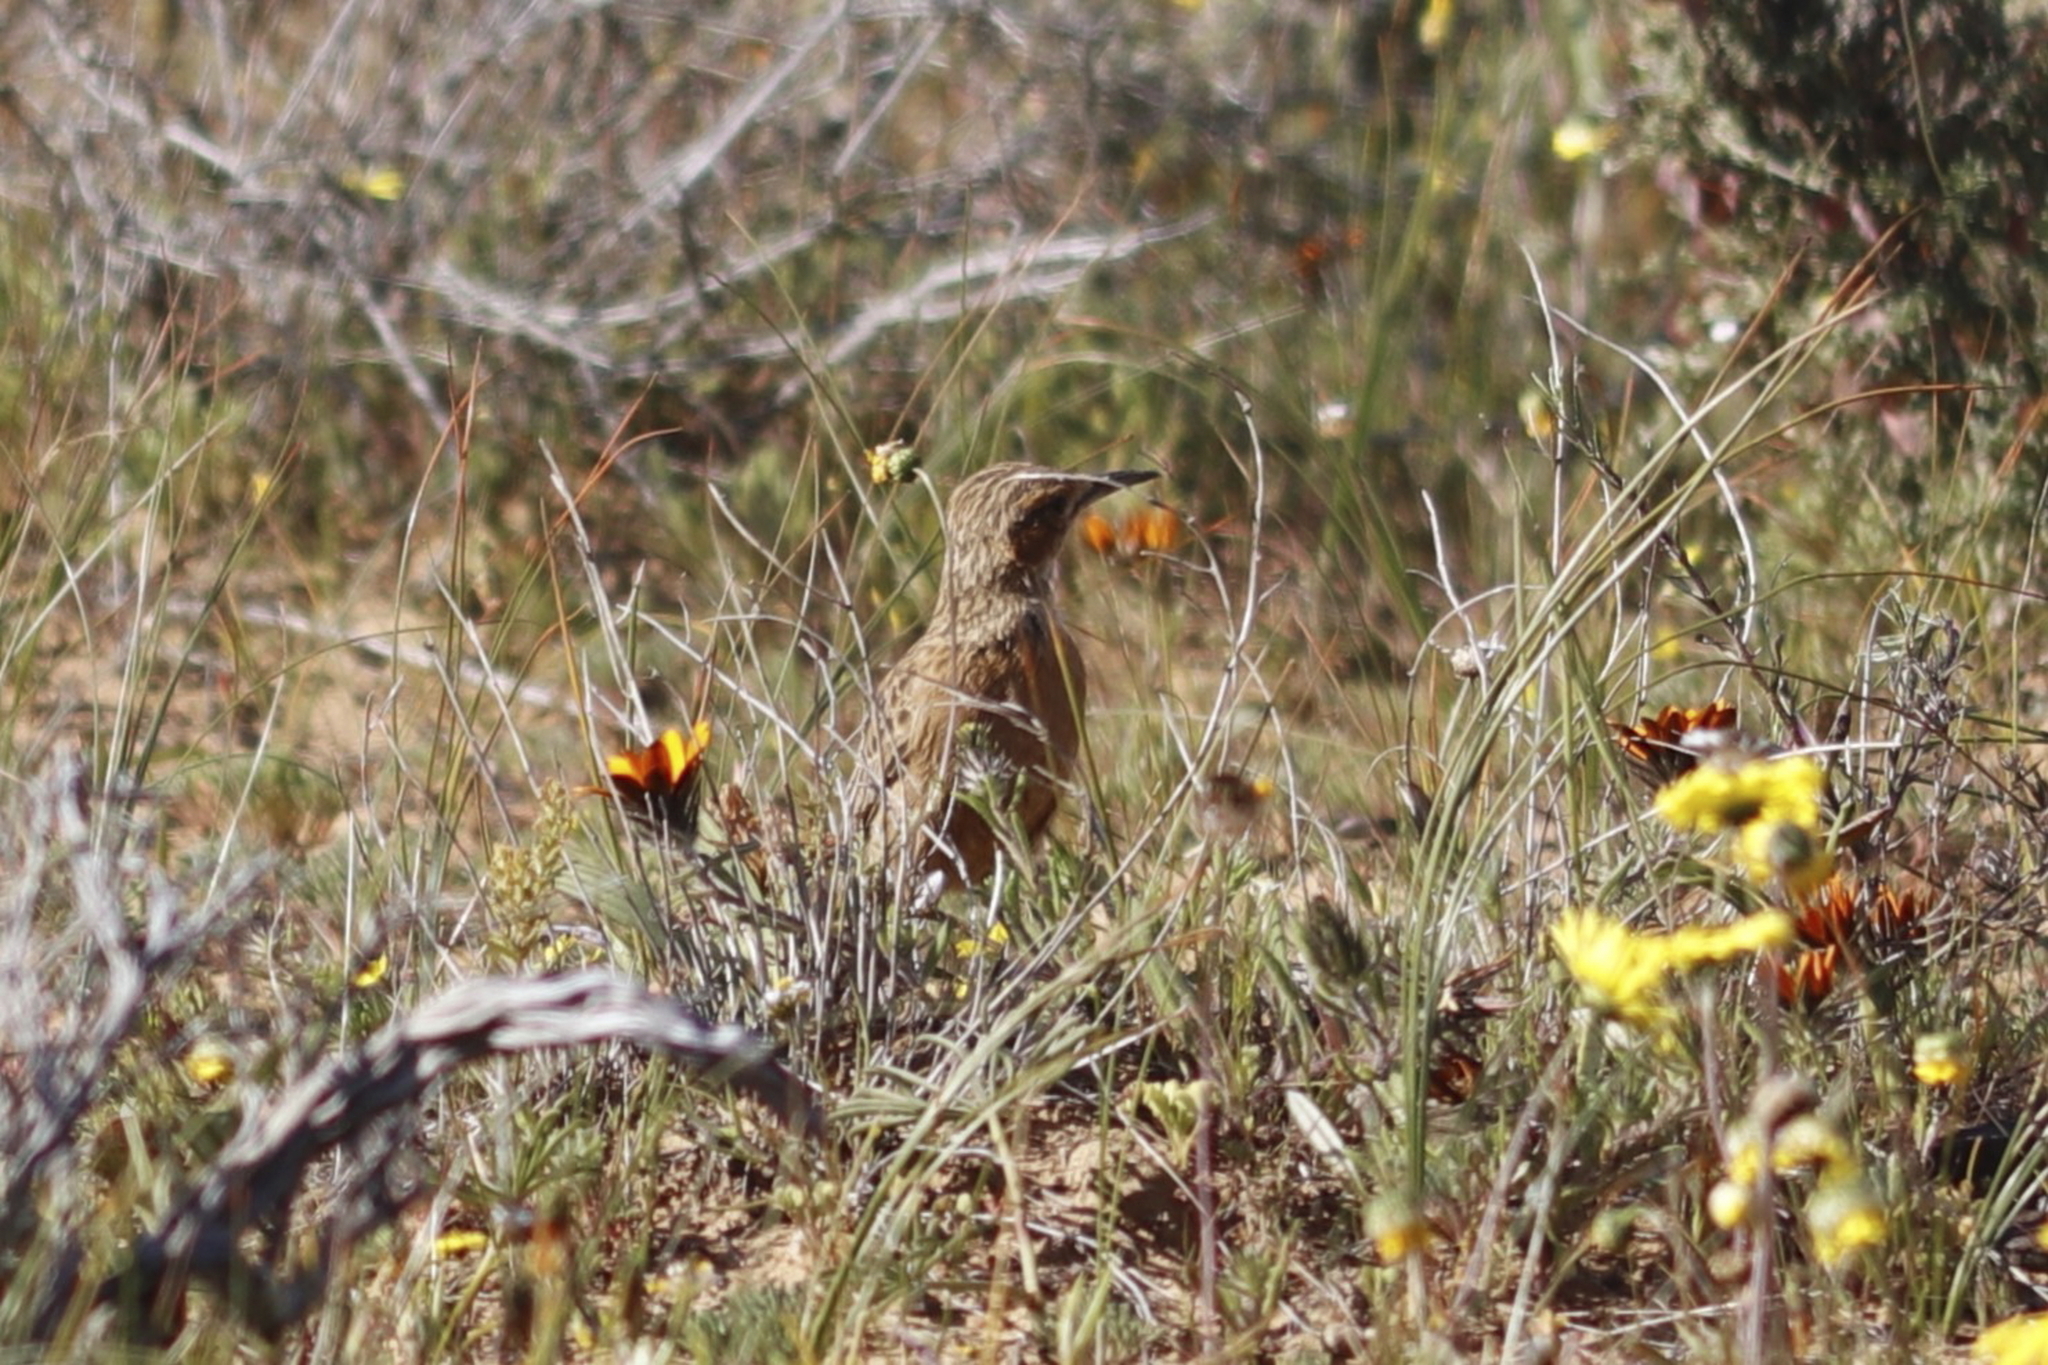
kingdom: Animalia
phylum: Chordata
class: Aves
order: Passeriformes
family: Alaudidae
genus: Chersomanes
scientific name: Chersomanes albofasciata
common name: Spike-heeled lark
